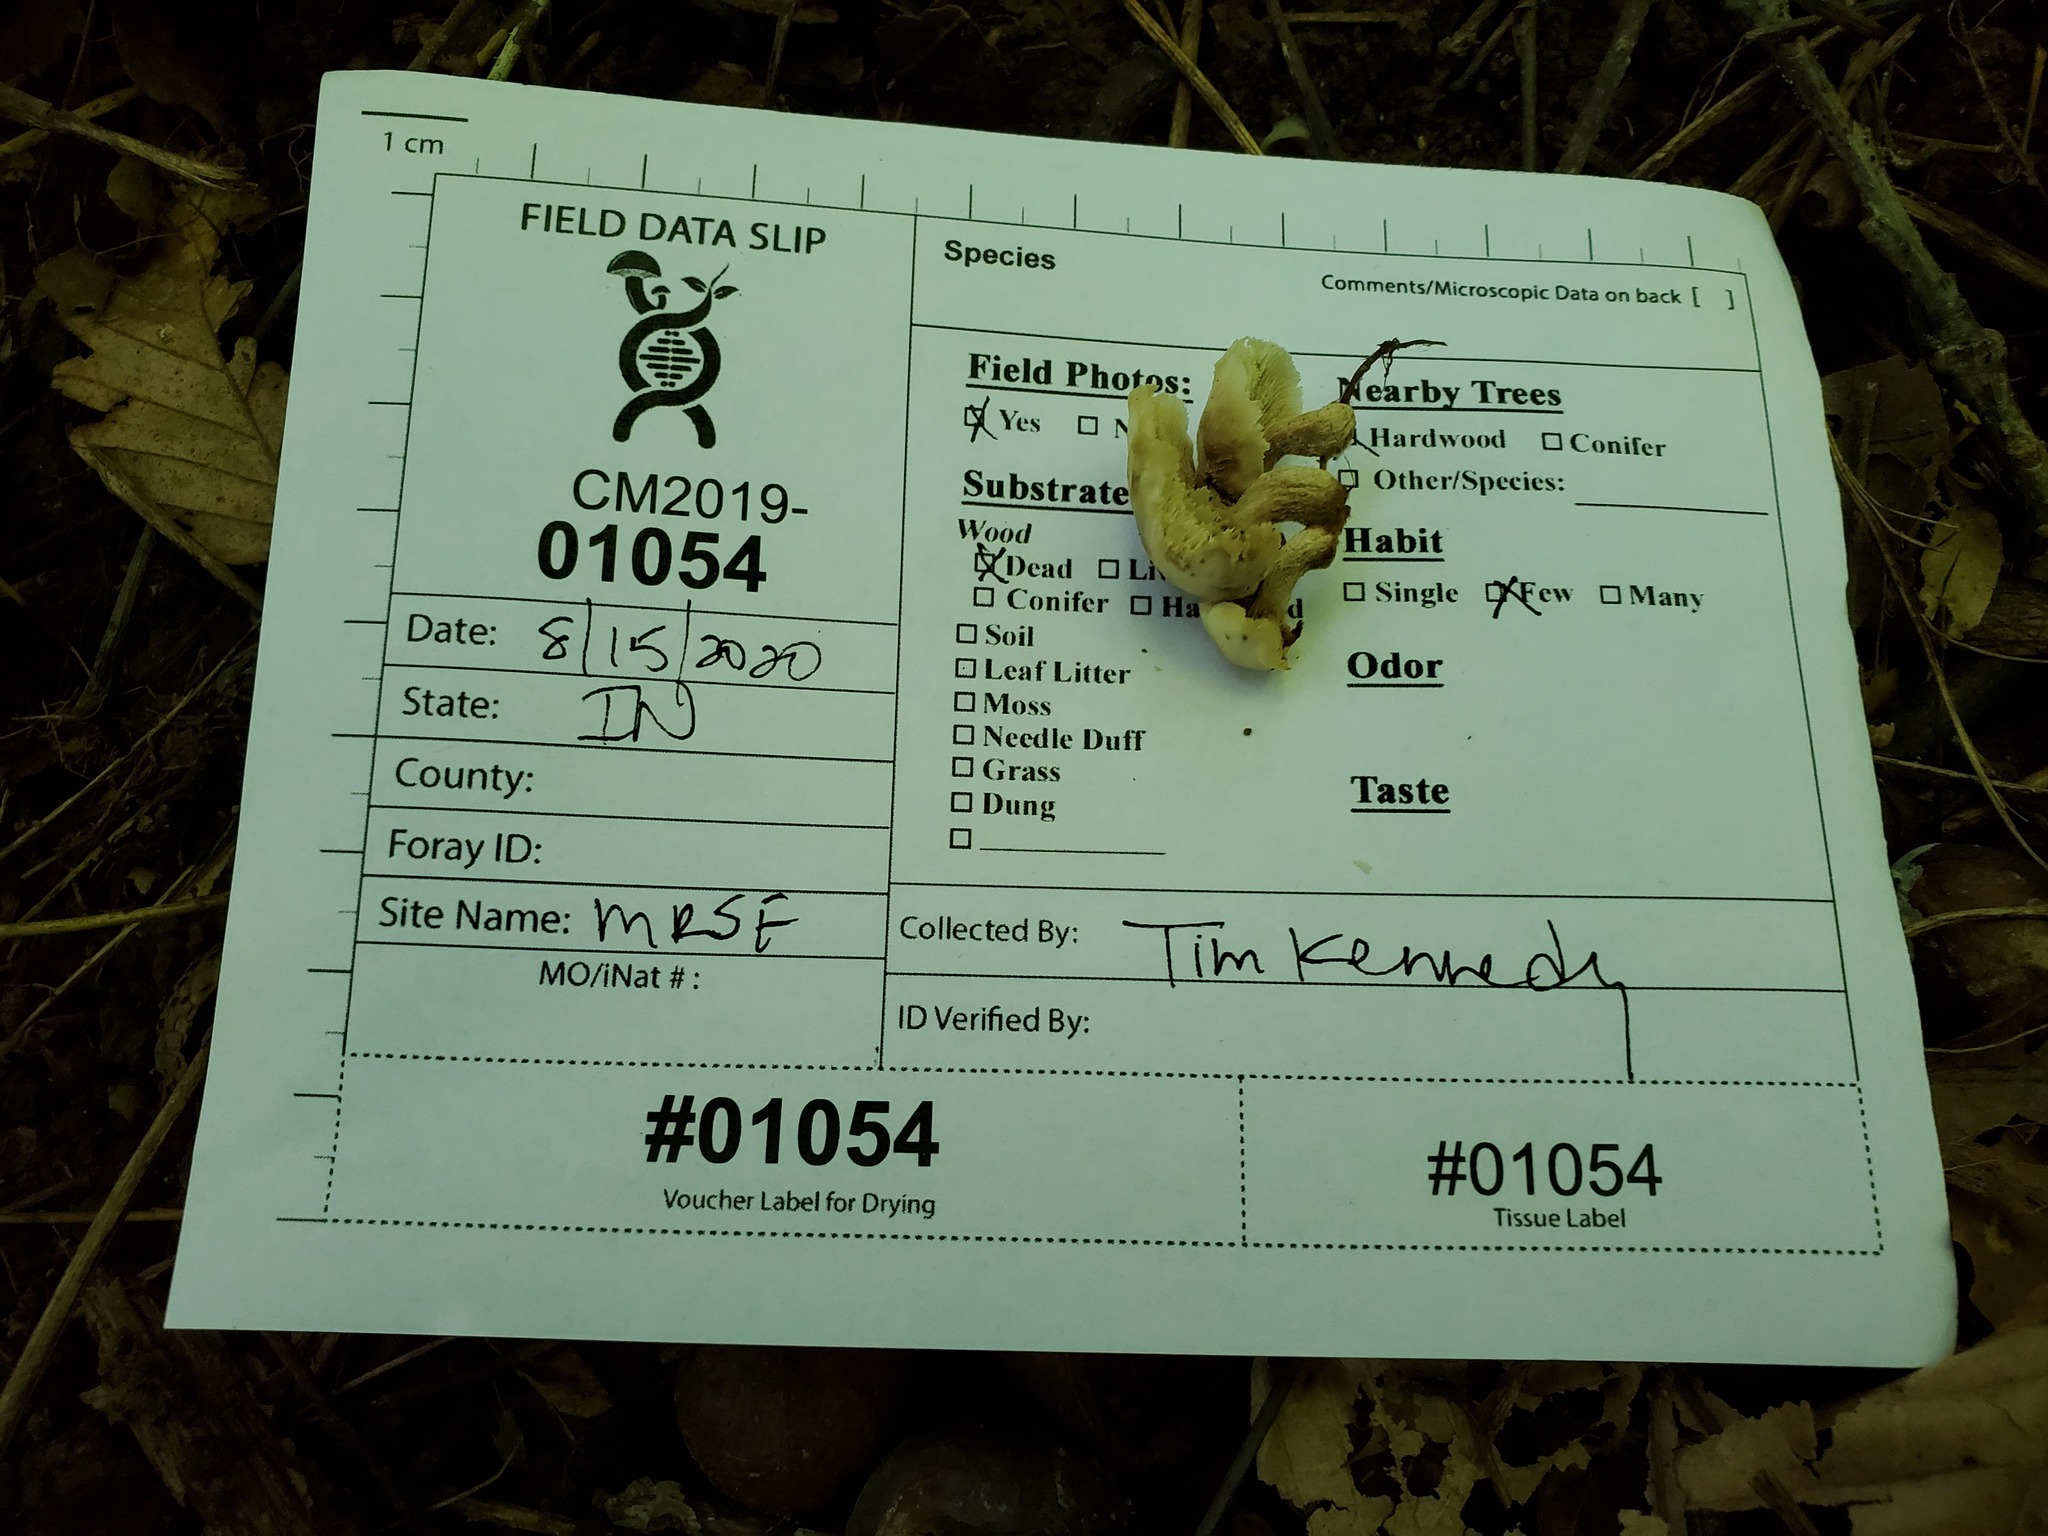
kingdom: Fungi
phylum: Basidiomycota
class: Agaricomycetes
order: Russulales
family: Auriscalpiaceae
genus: Lentinellus
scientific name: Lentinellus subaustralis
